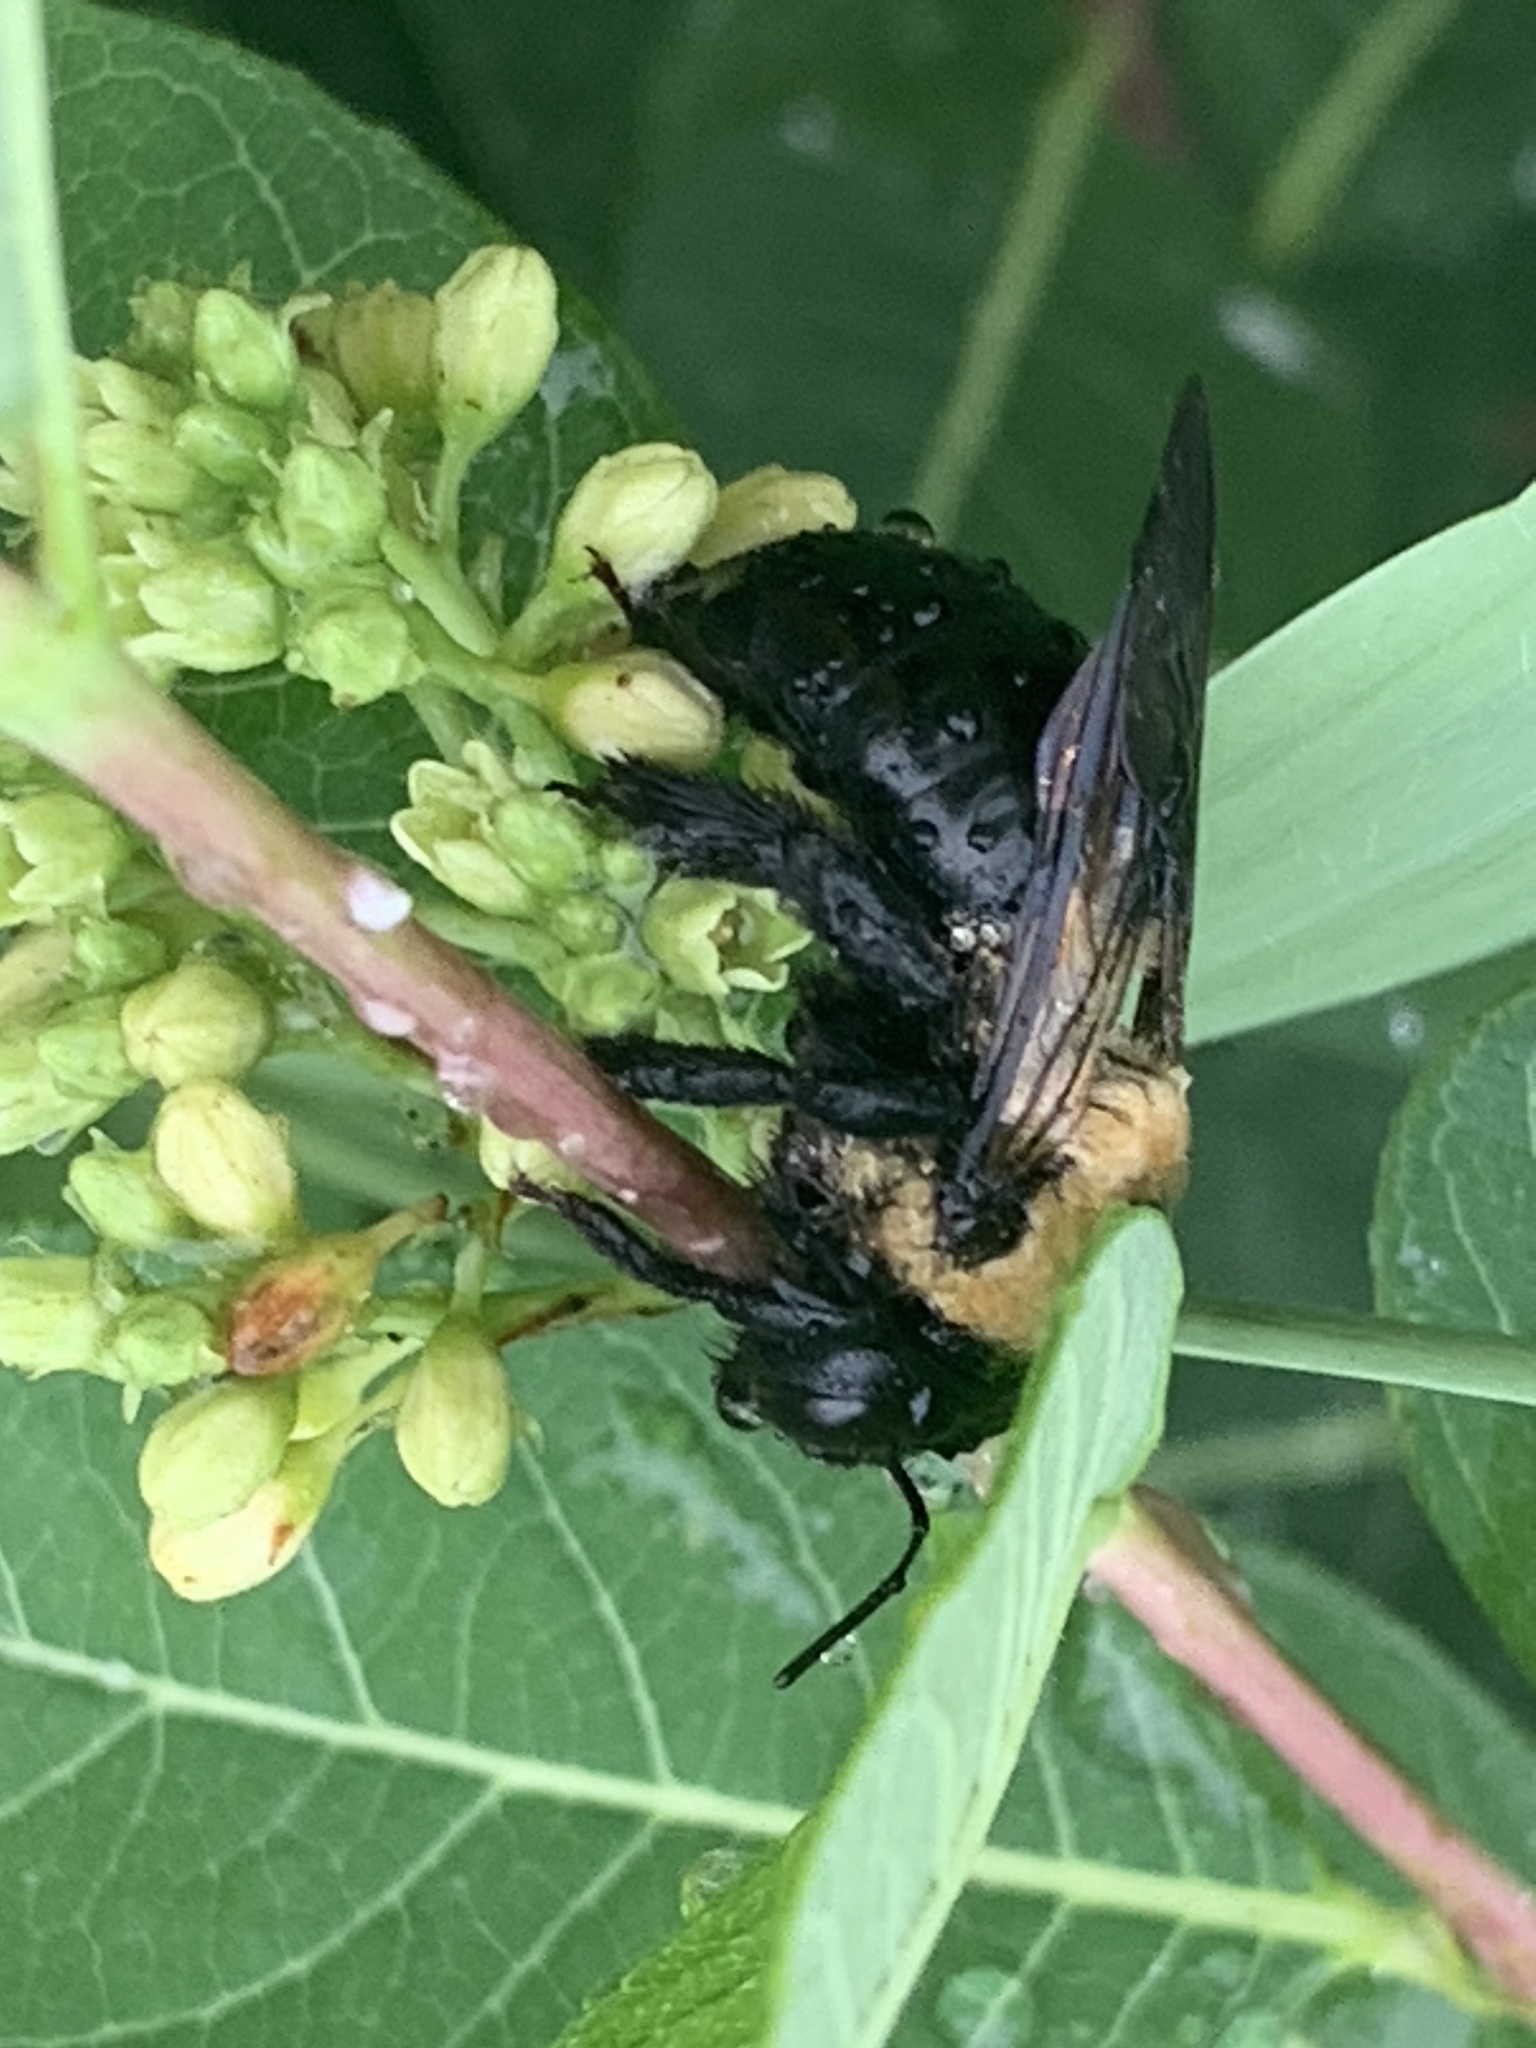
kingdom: Animalia
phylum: Arthropoda
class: Insecta
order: Hymenoptera
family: Apidae
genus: Xylocopa
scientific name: Xylocopa virginica
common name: Carpenter bee
